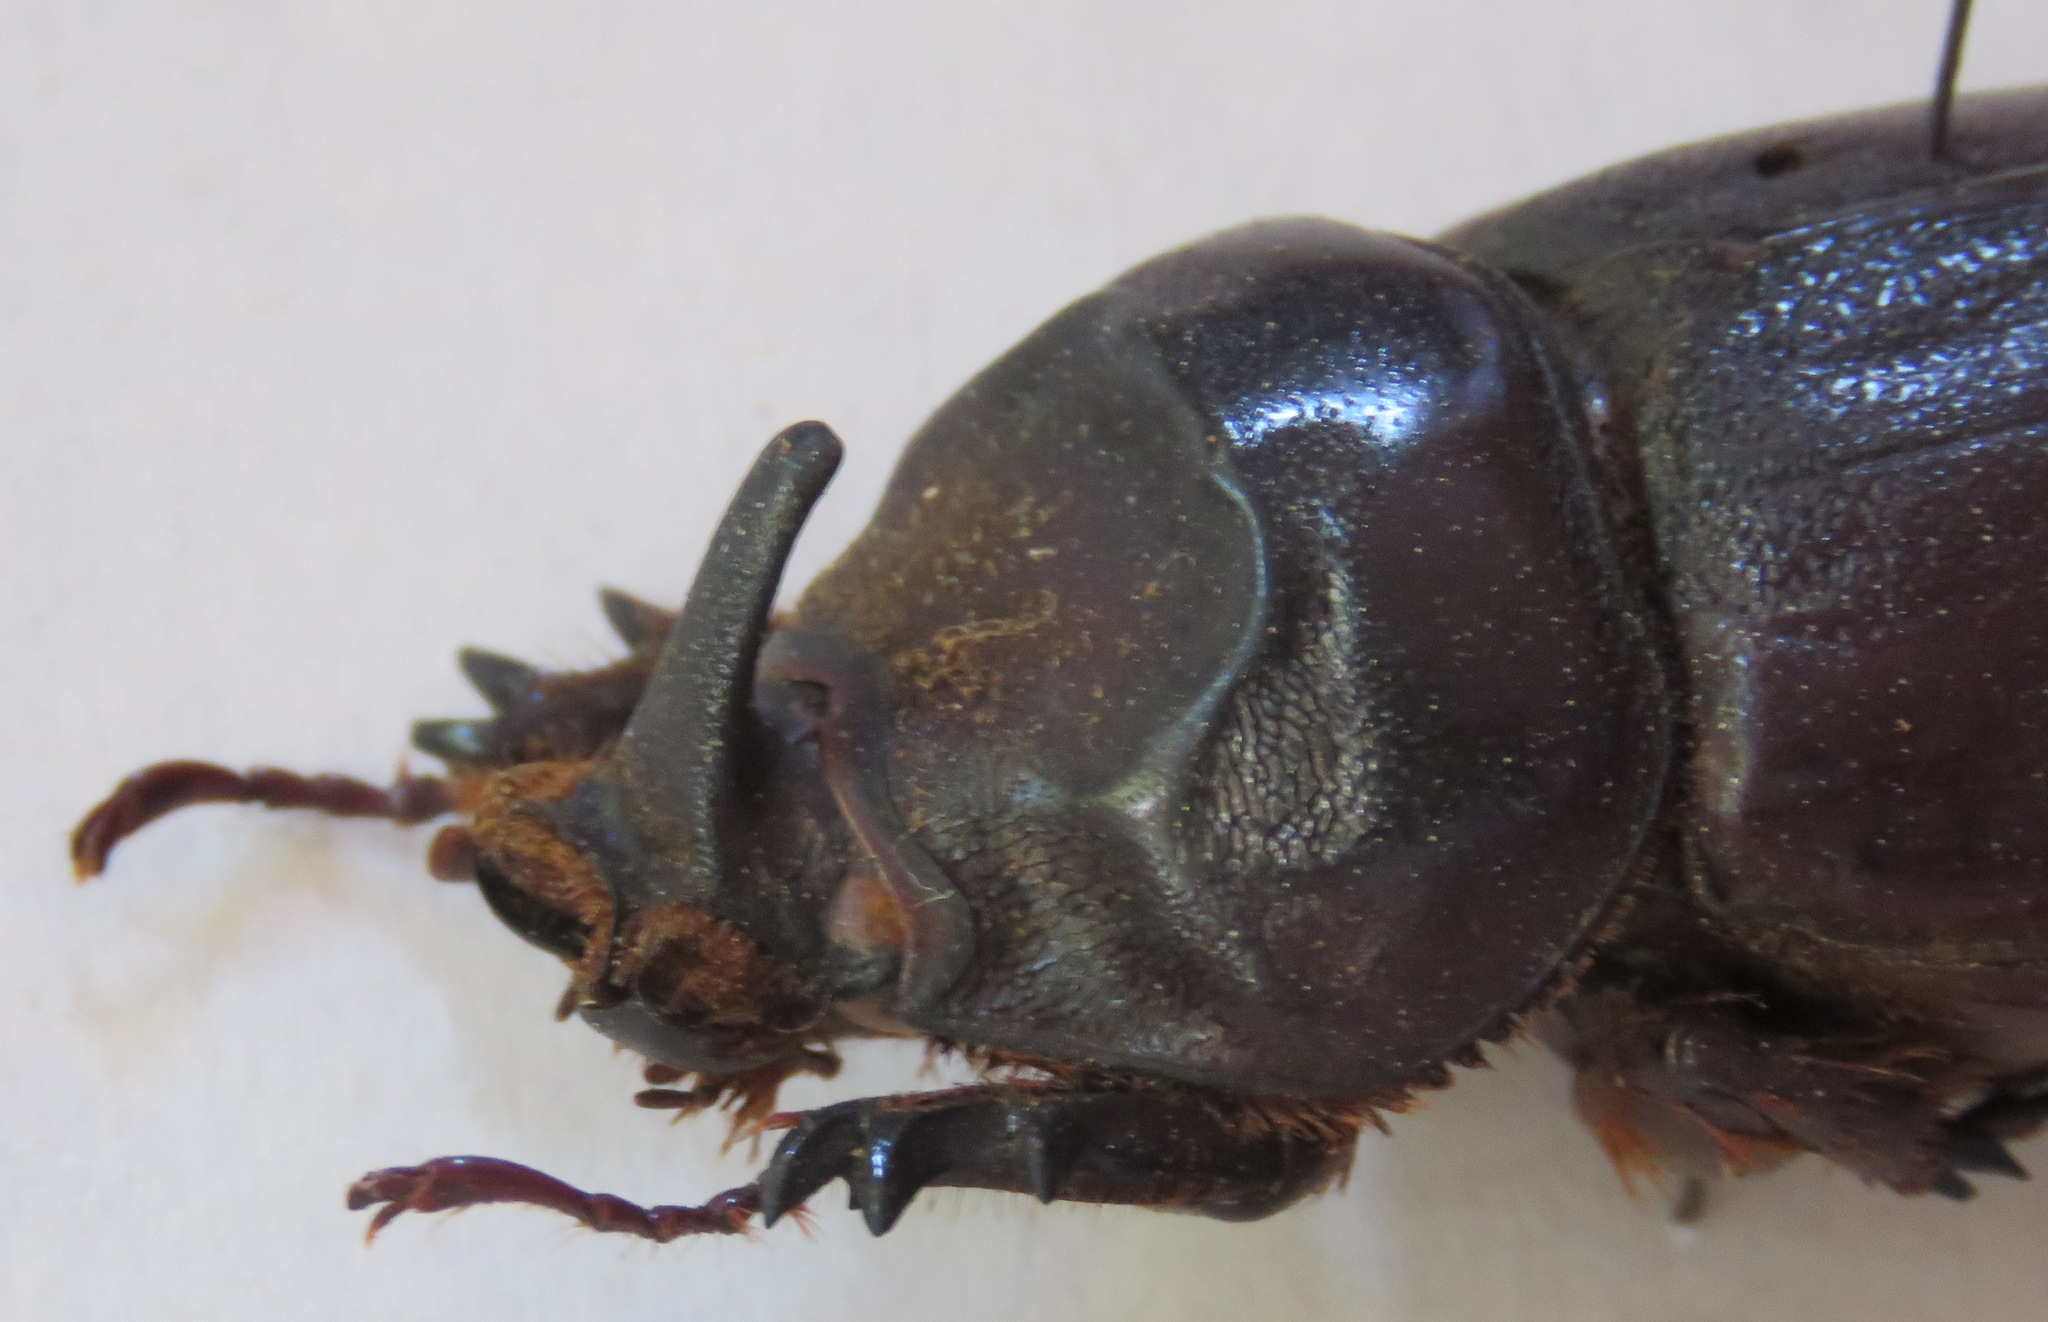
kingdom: Animalia
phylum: Arthropoda
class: Insecta
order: Coleoptera
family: Scarabaeidae
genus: Oryctes
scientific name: Oryctes owariensis
